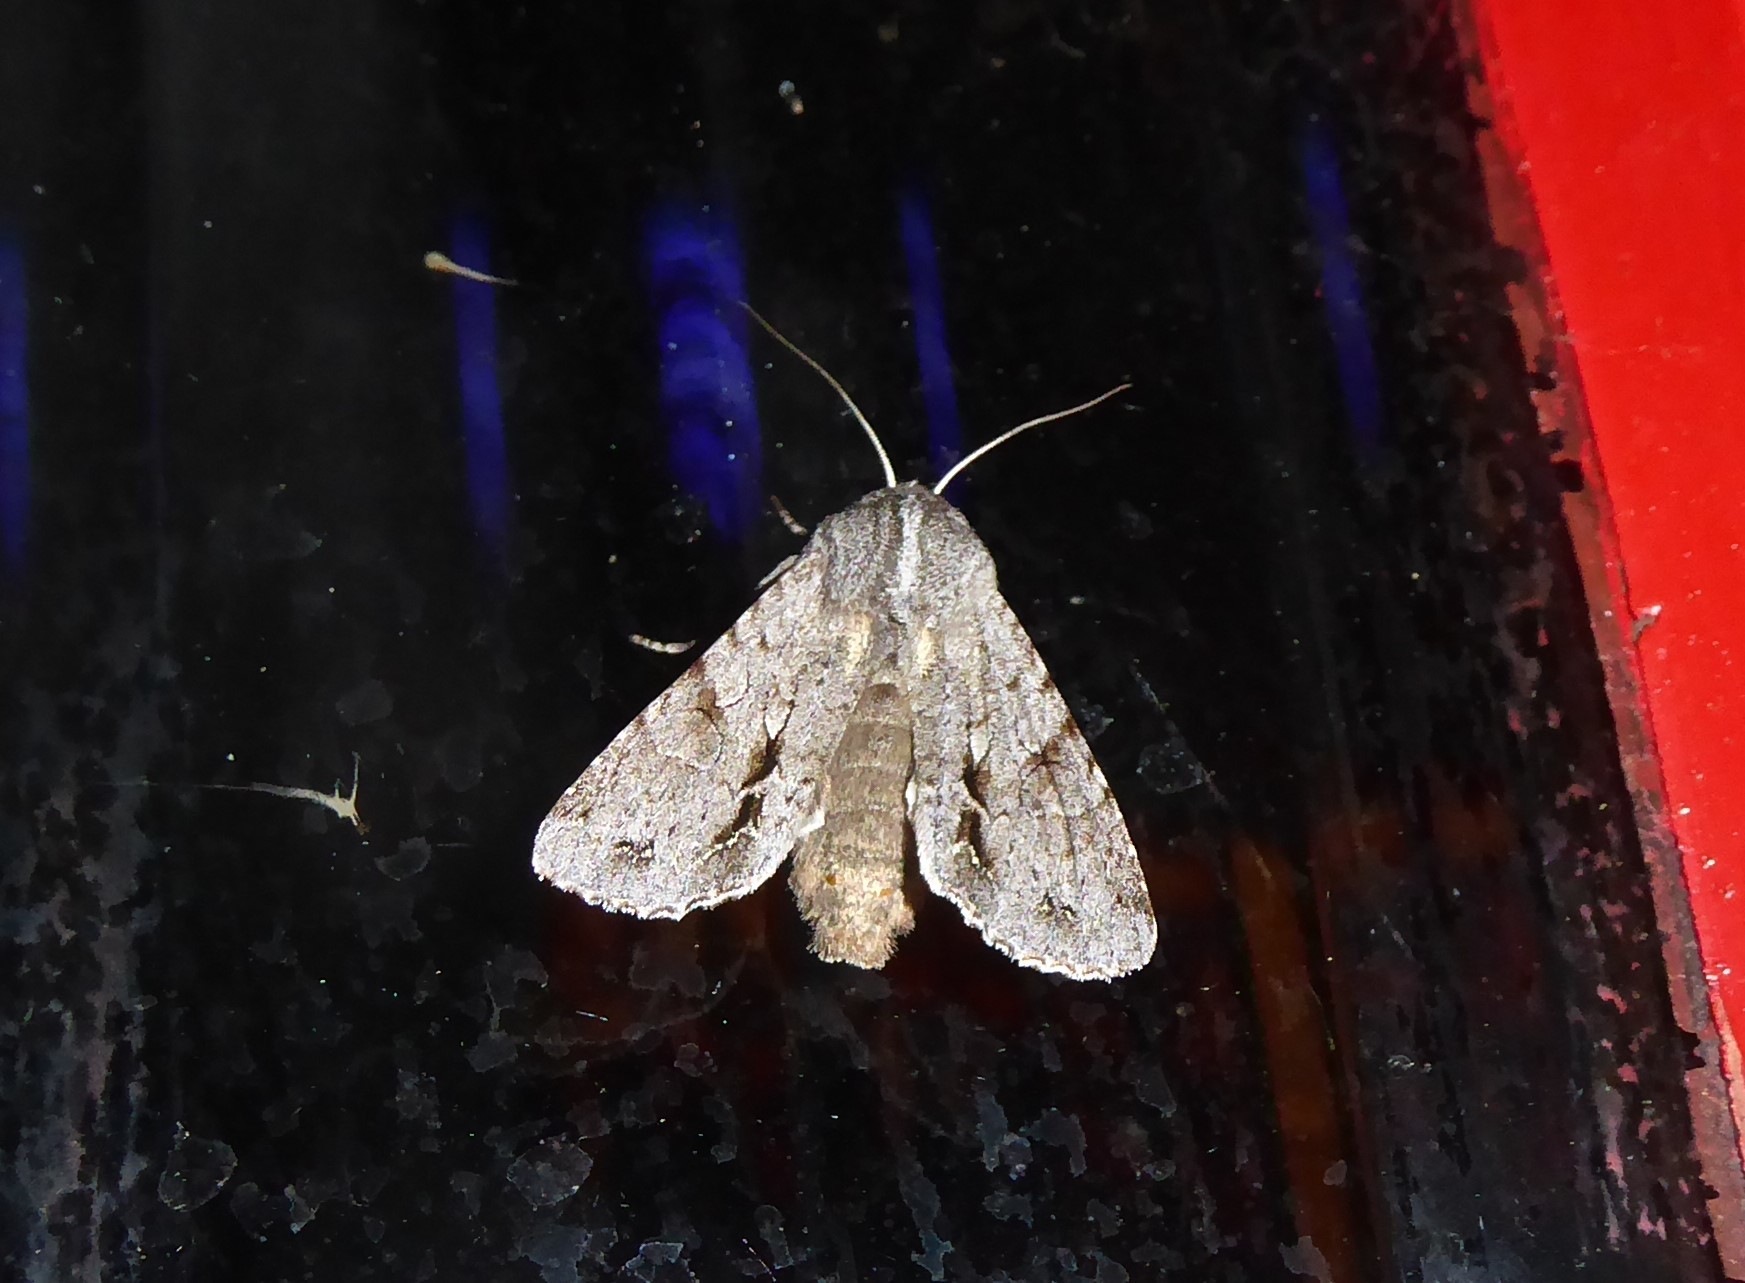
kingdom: Animalia
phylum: Arthropoda
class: Insecta
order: Lepidoptera
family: Noctuidae
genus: Ichneutica
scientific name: Ichneutica
